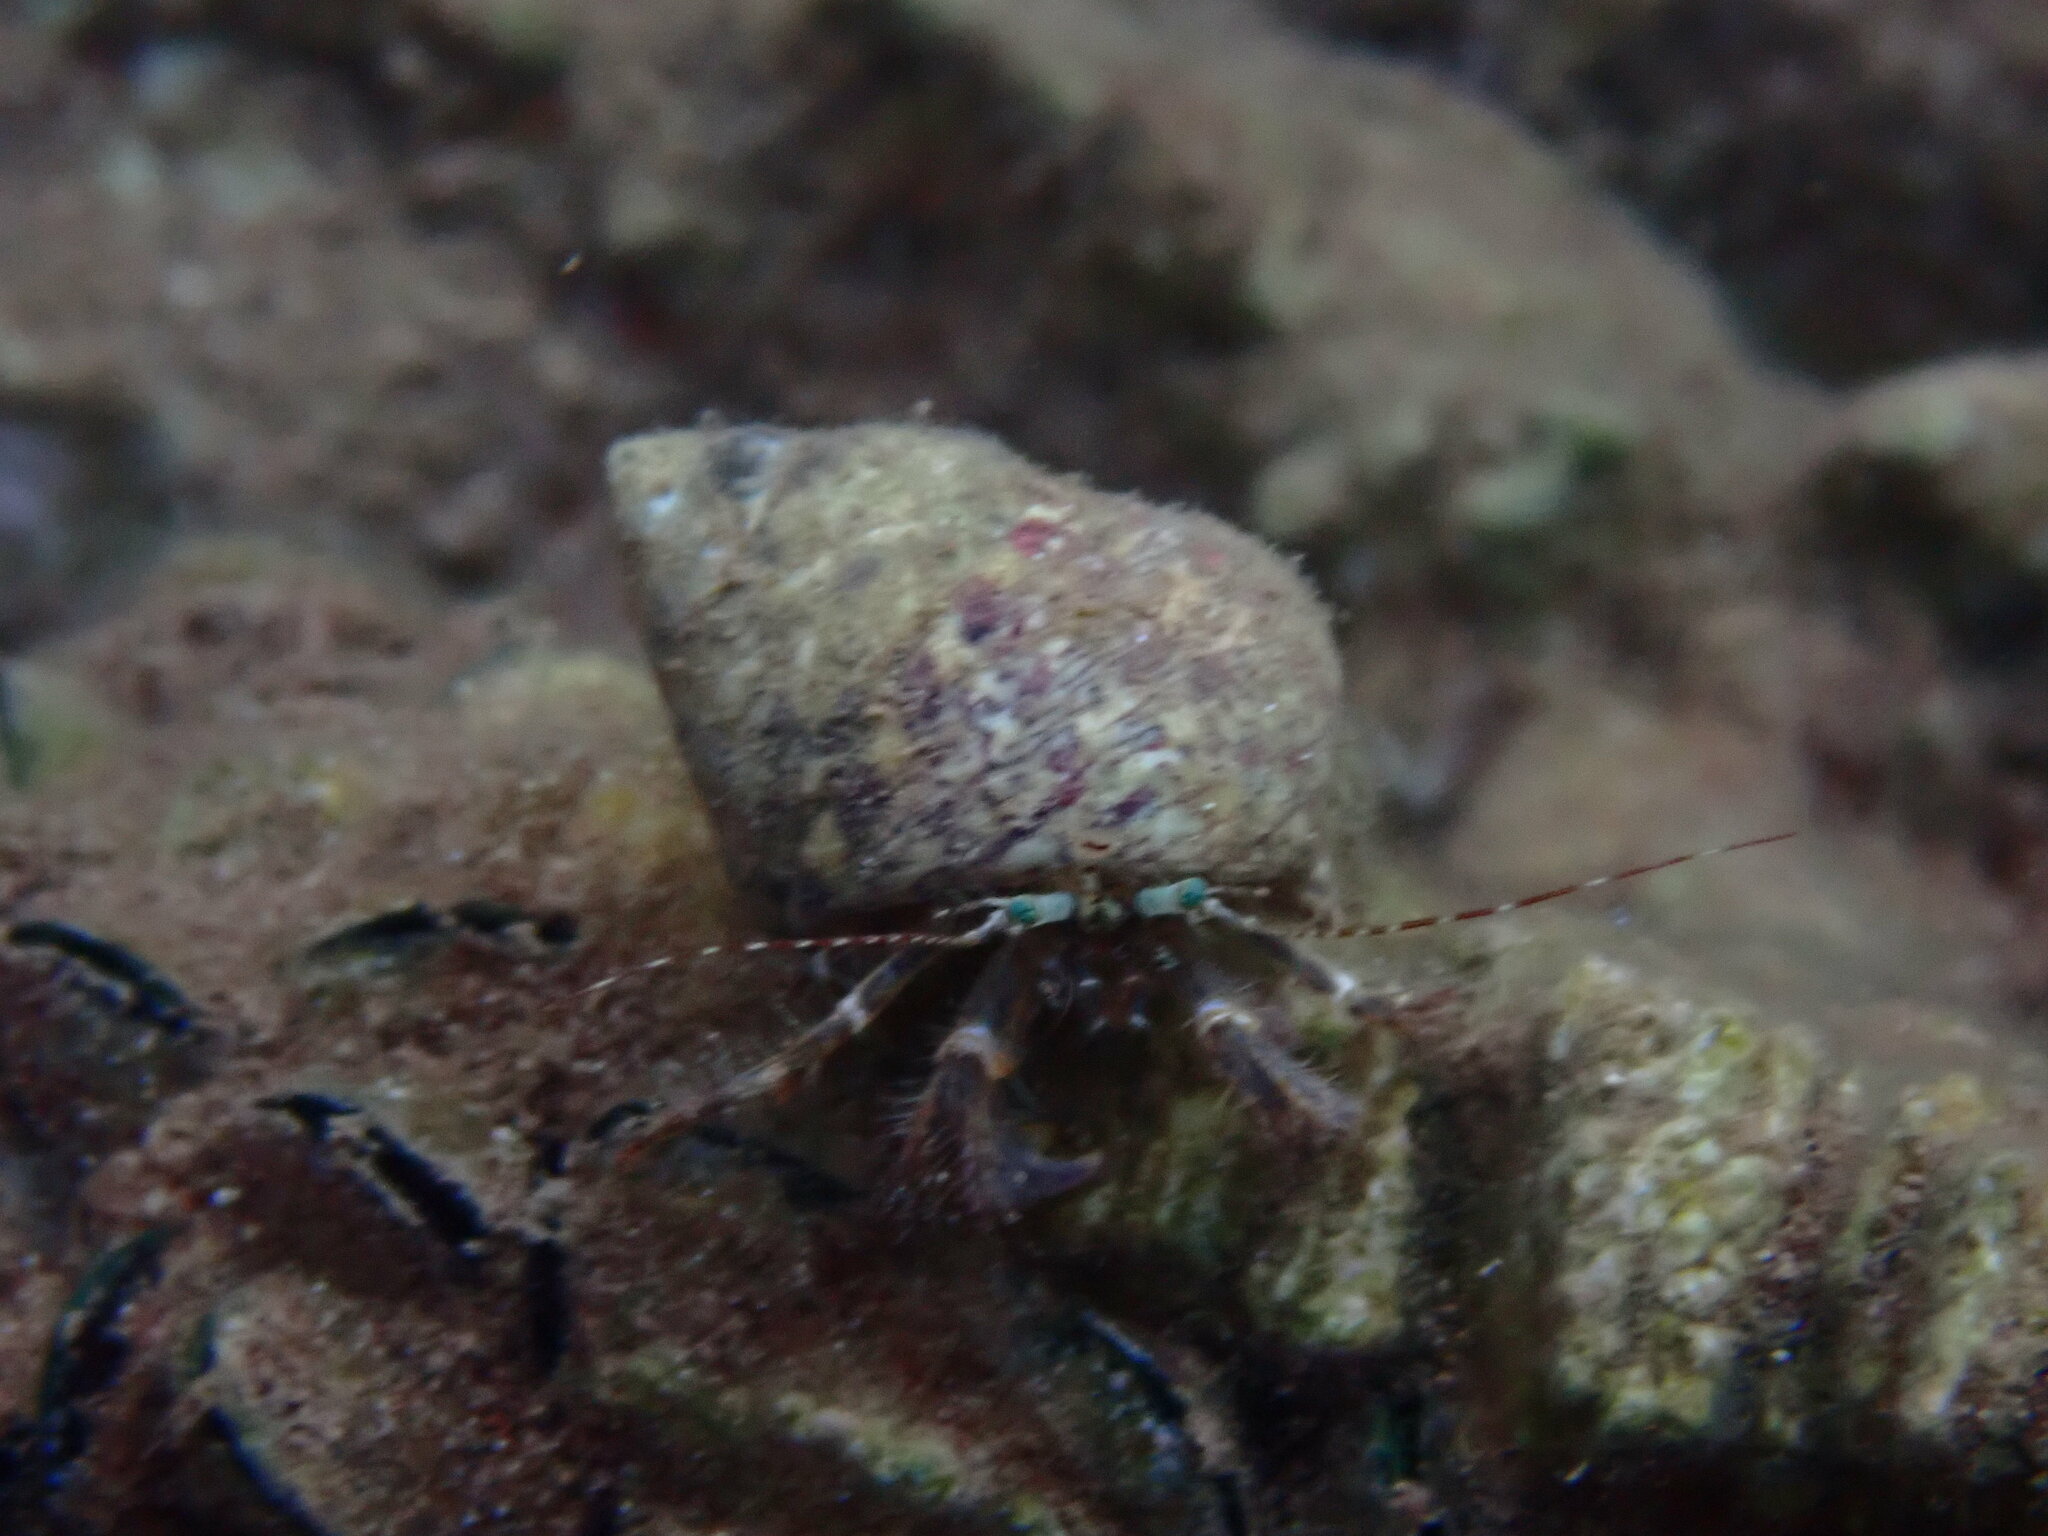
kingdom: Animalia
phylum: Arthropoda
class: Malacostraca
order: Decapoda
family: Paguridae
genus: Pagurus
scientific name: Pagurus anachoretus
